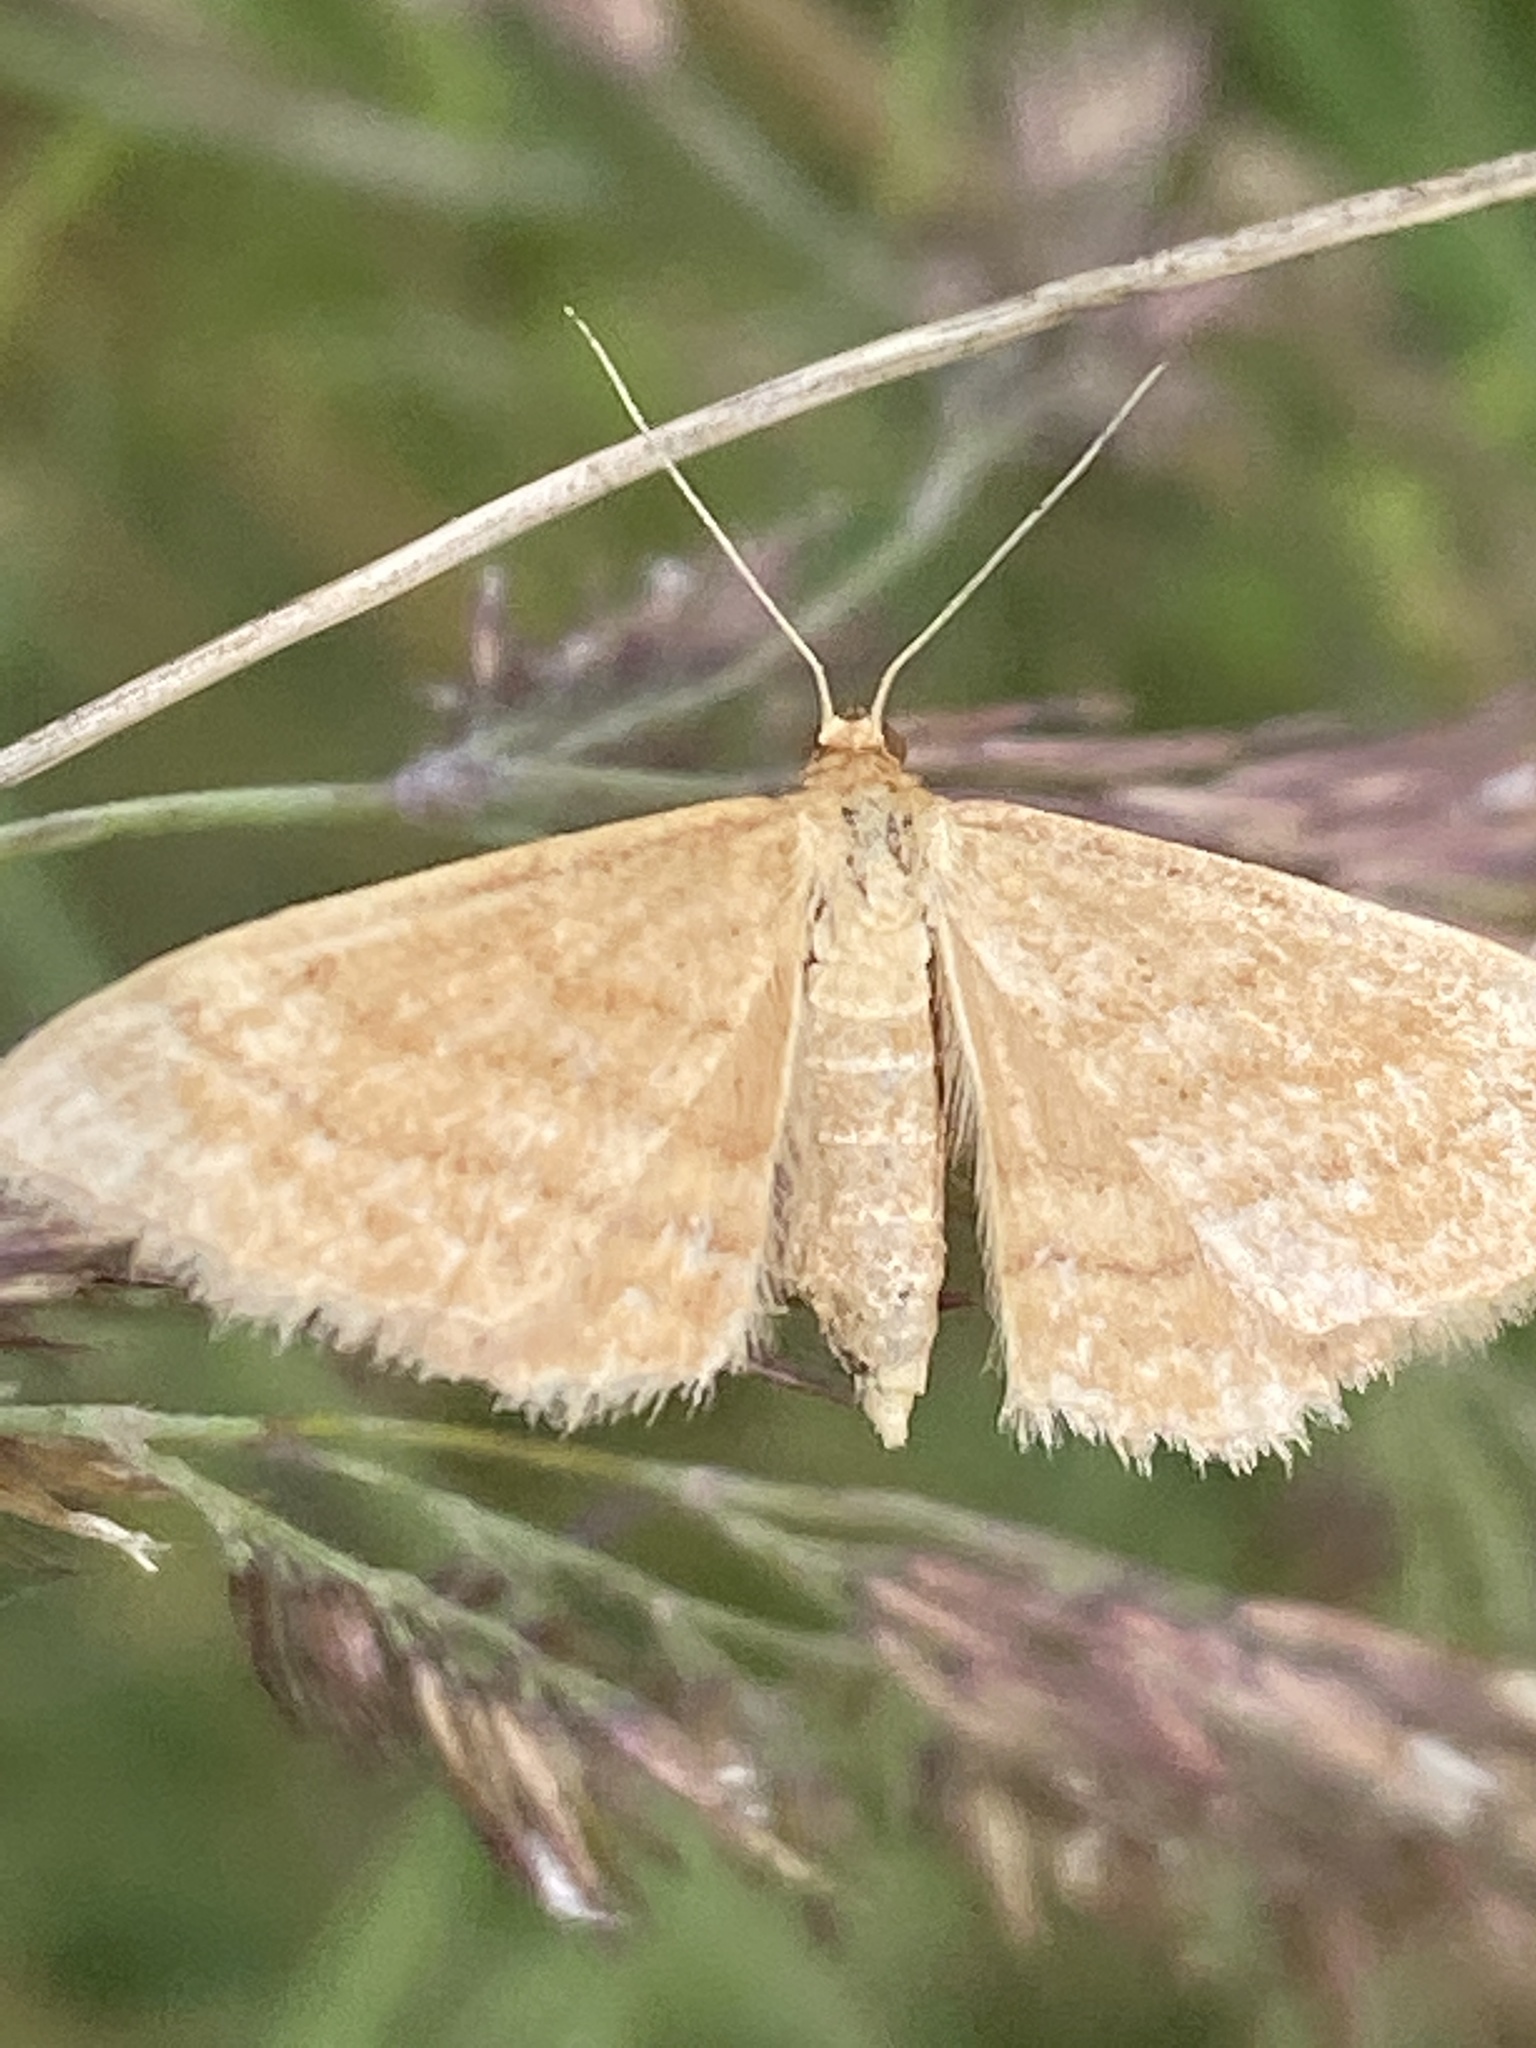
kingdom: Animalia
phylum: Arthropoda
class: Insecta
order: Lepidoptera
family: Geometridae
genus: Idaea
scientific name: Idaea ochrata
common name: Bright wave
